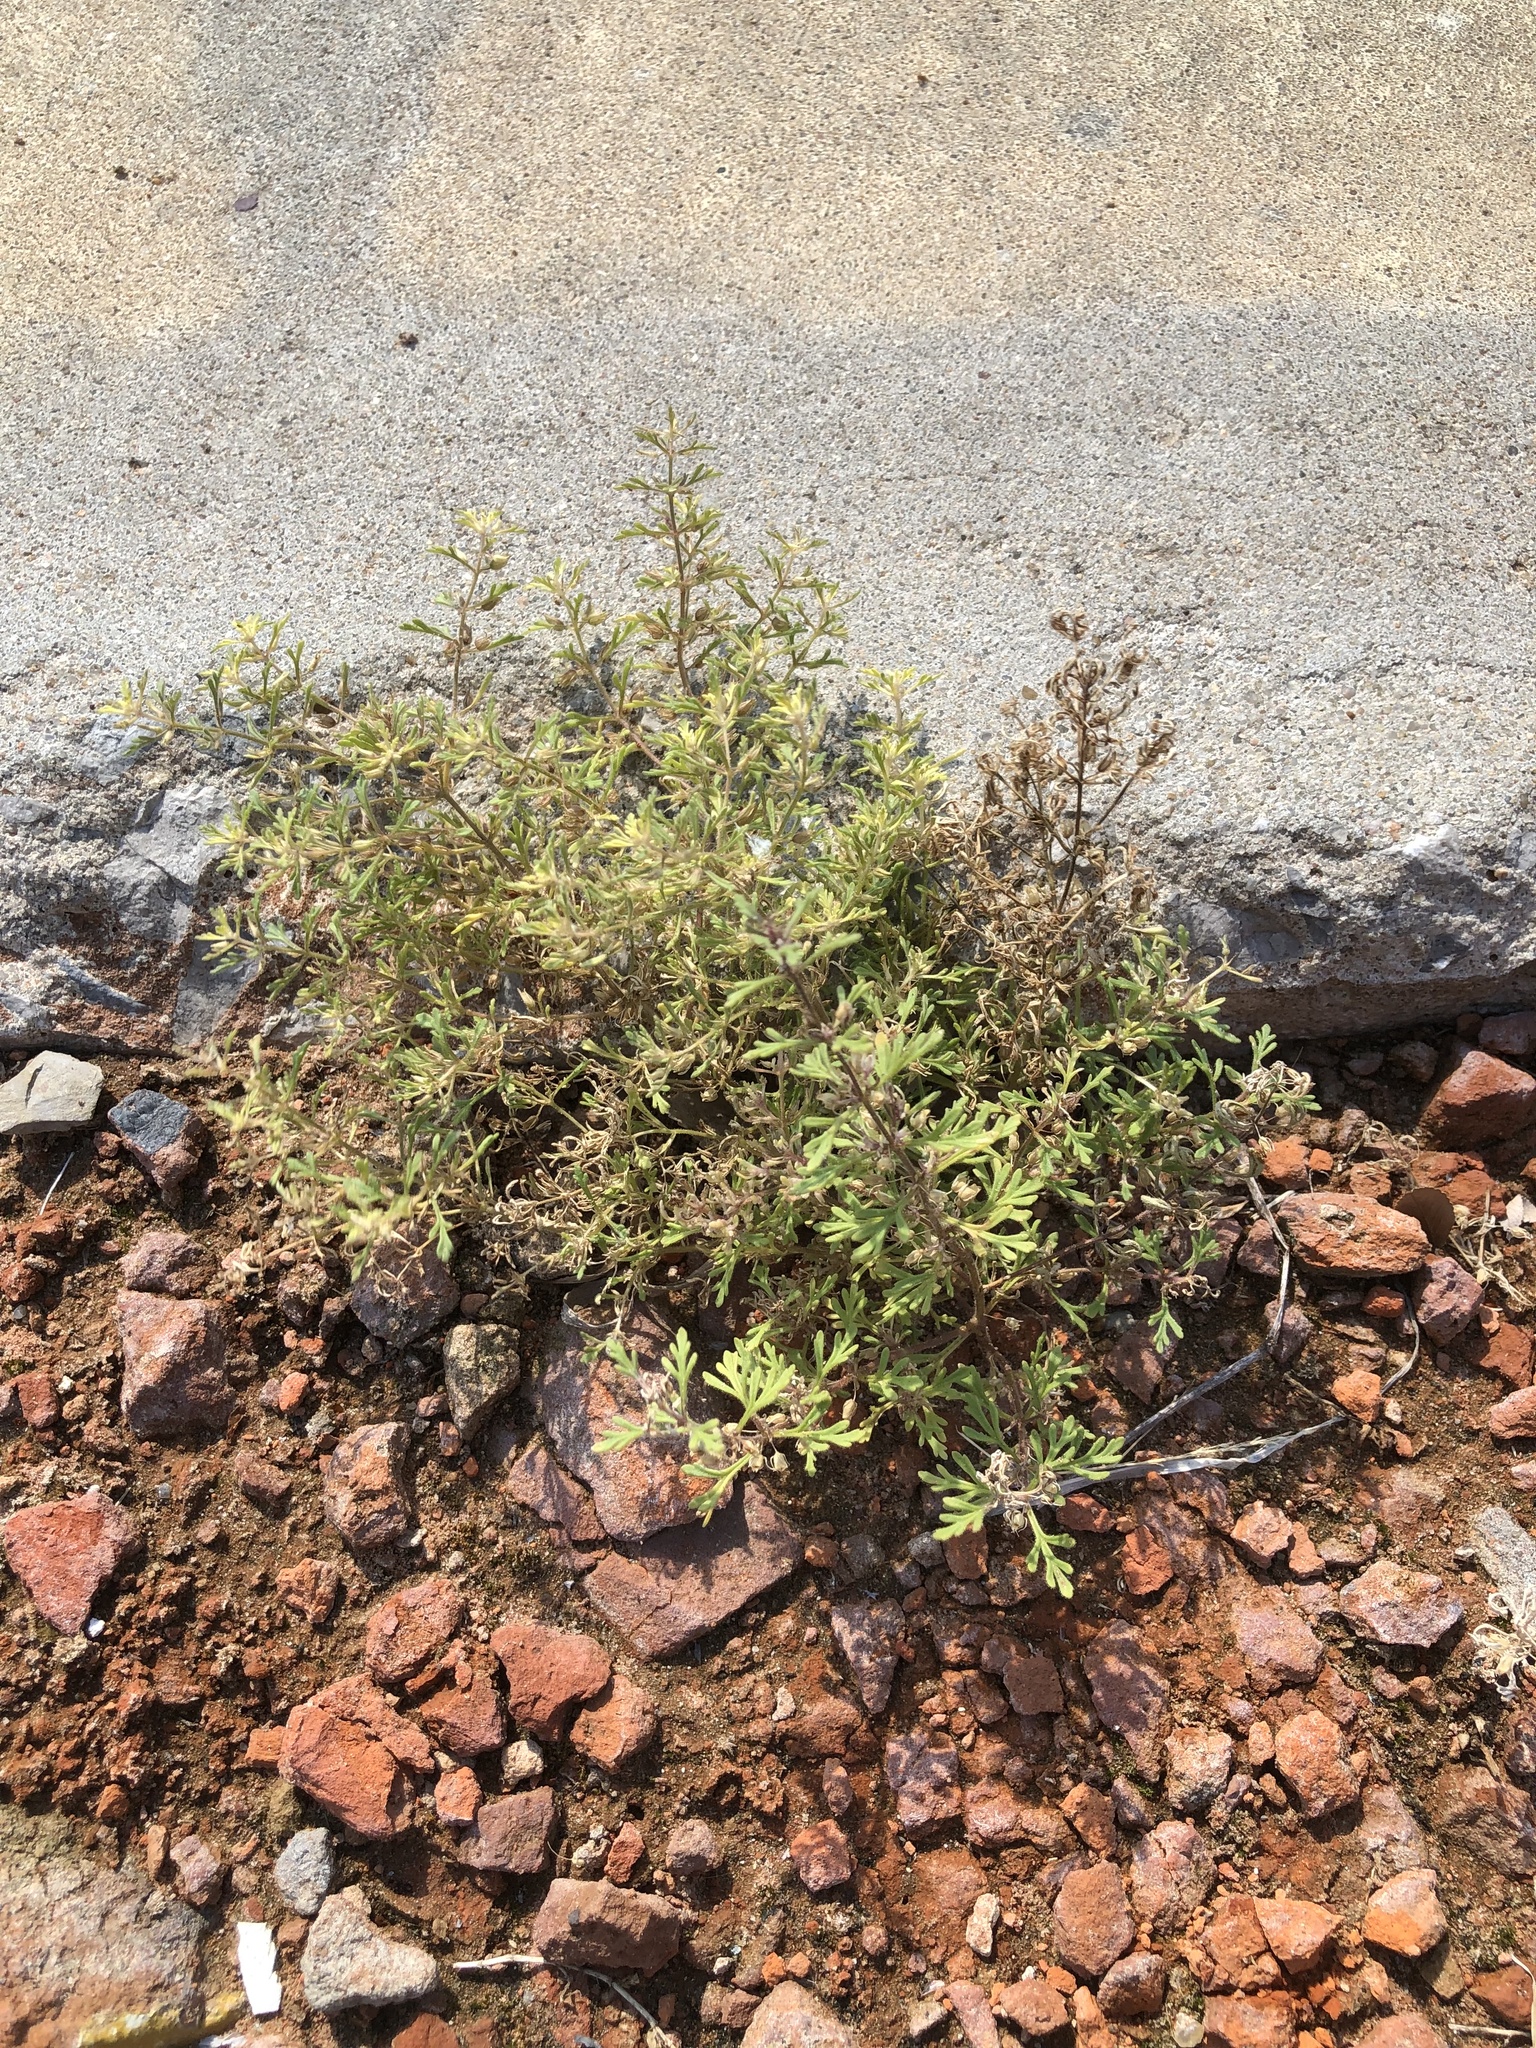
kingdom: Plantae
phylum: Tracheophyta
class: Magnoliopsida
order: Lamiales
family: Plantaginaceae
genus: Leucospora
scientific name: Leucospora multifida
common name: Narrow-leaf paleseed
